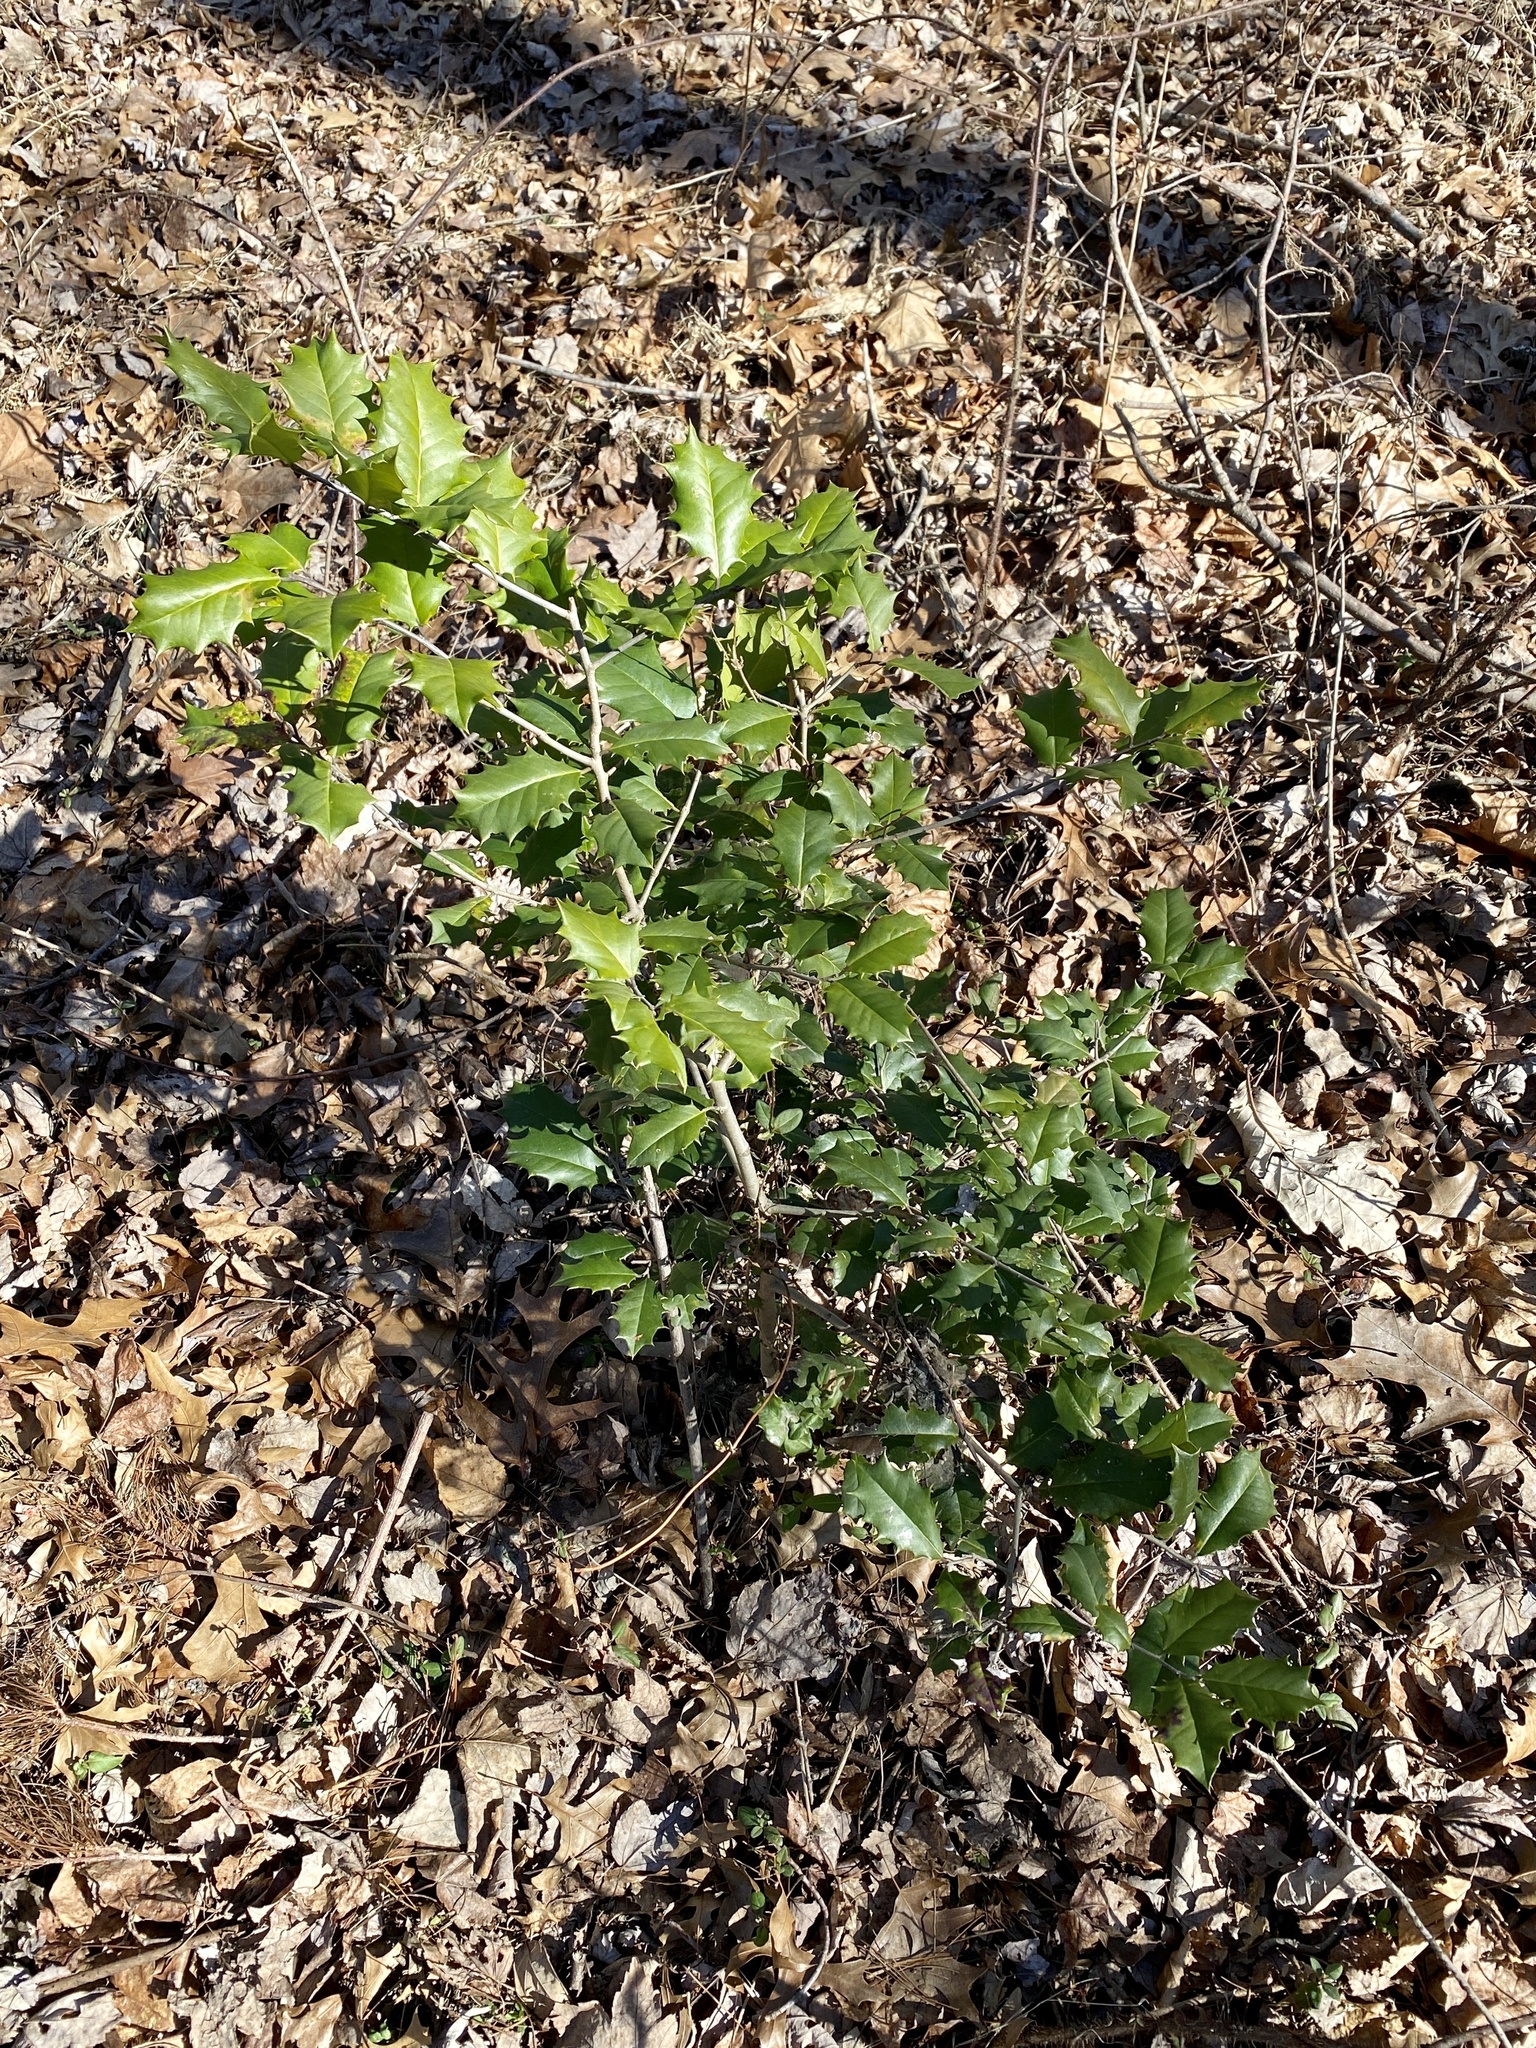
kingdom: Plantae
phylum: Tracheophyta
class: Magnoliopsida
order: Aquifoliales
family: Aquifoliaceae
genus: Ilex
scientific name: Ilex opaca
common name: American holly
